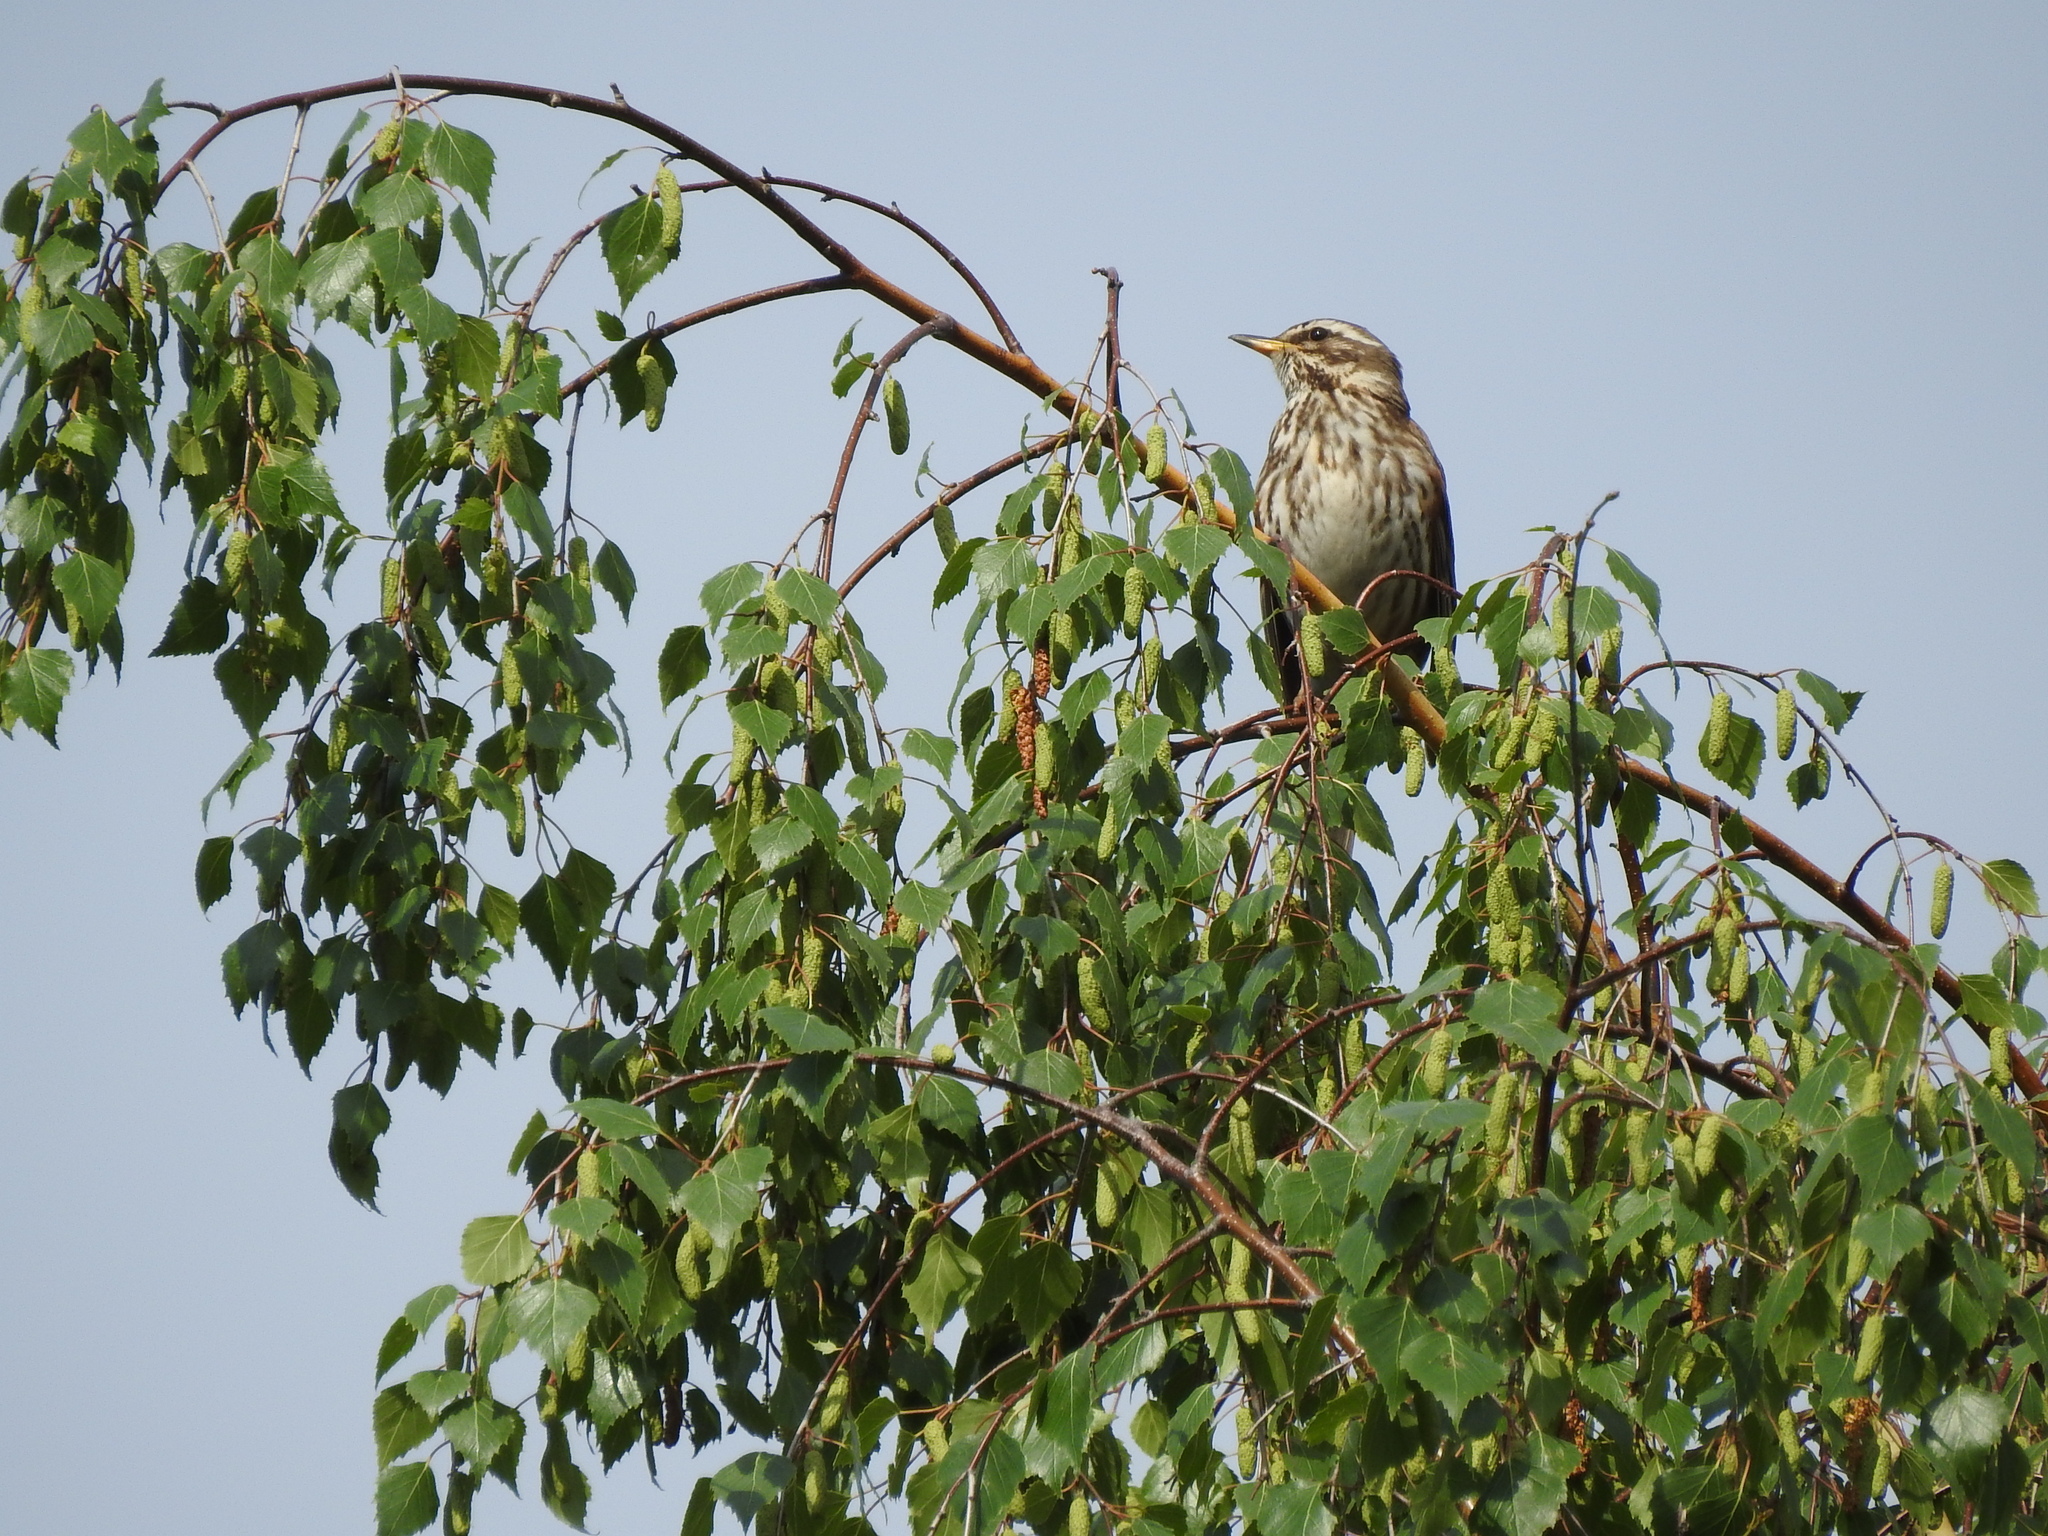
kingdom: Animalia
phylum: Chordata
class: Aves
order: Passeriformes
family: Turdidae
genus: Turdus
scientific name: Turdus iliacus
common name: Redwing
